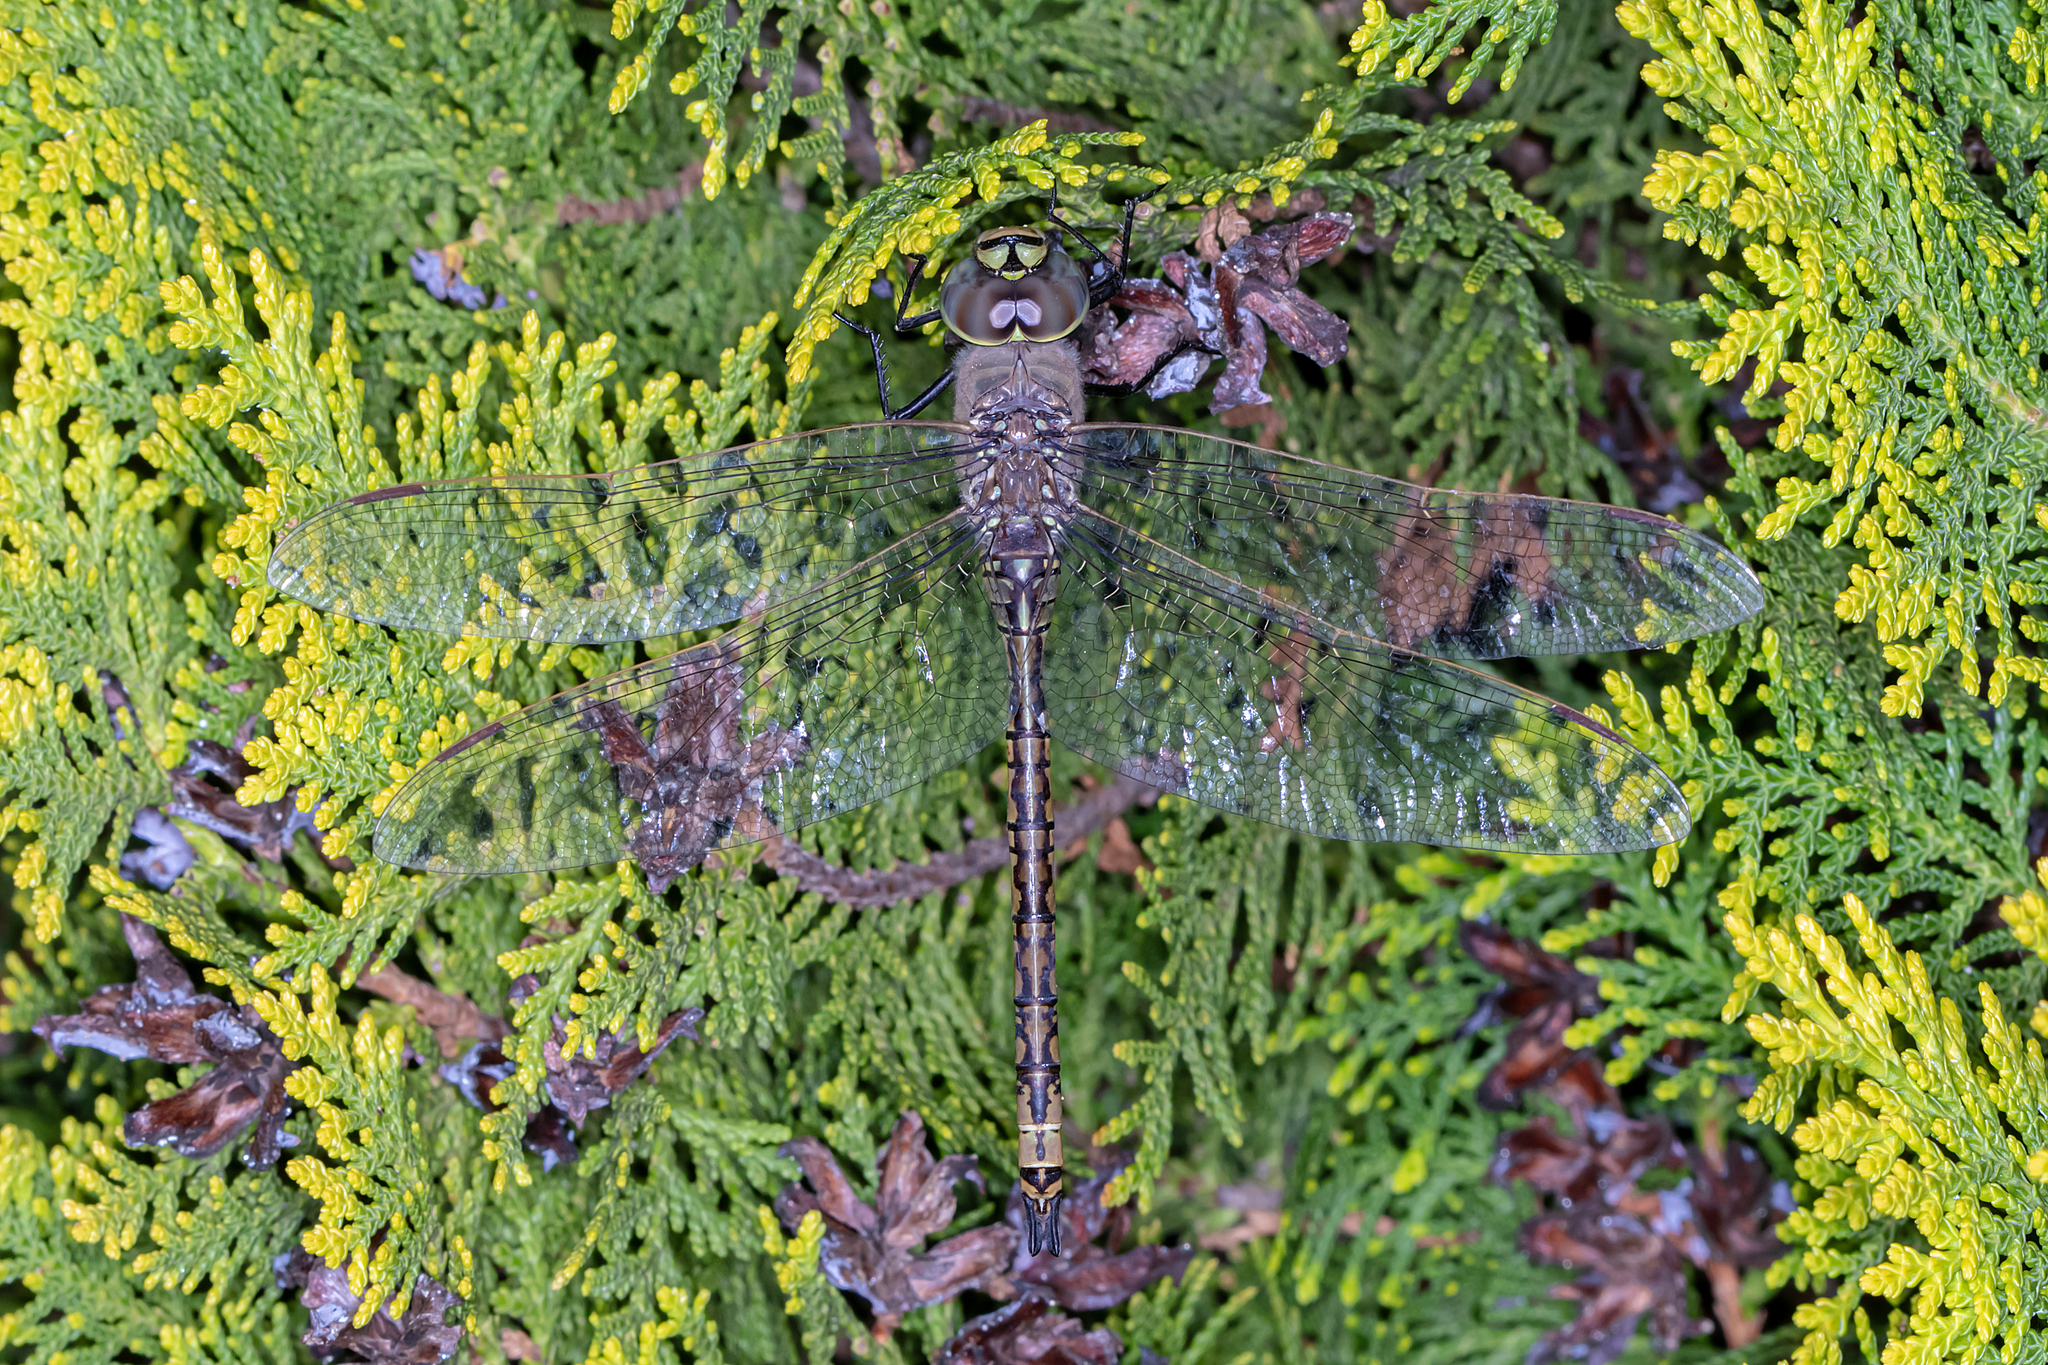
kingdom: Animalia
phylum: Arthropoda
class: Insecta
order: Odonata
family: Aeshnidae
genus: Anax
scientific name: Anax papuensis
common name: Australian emperor
